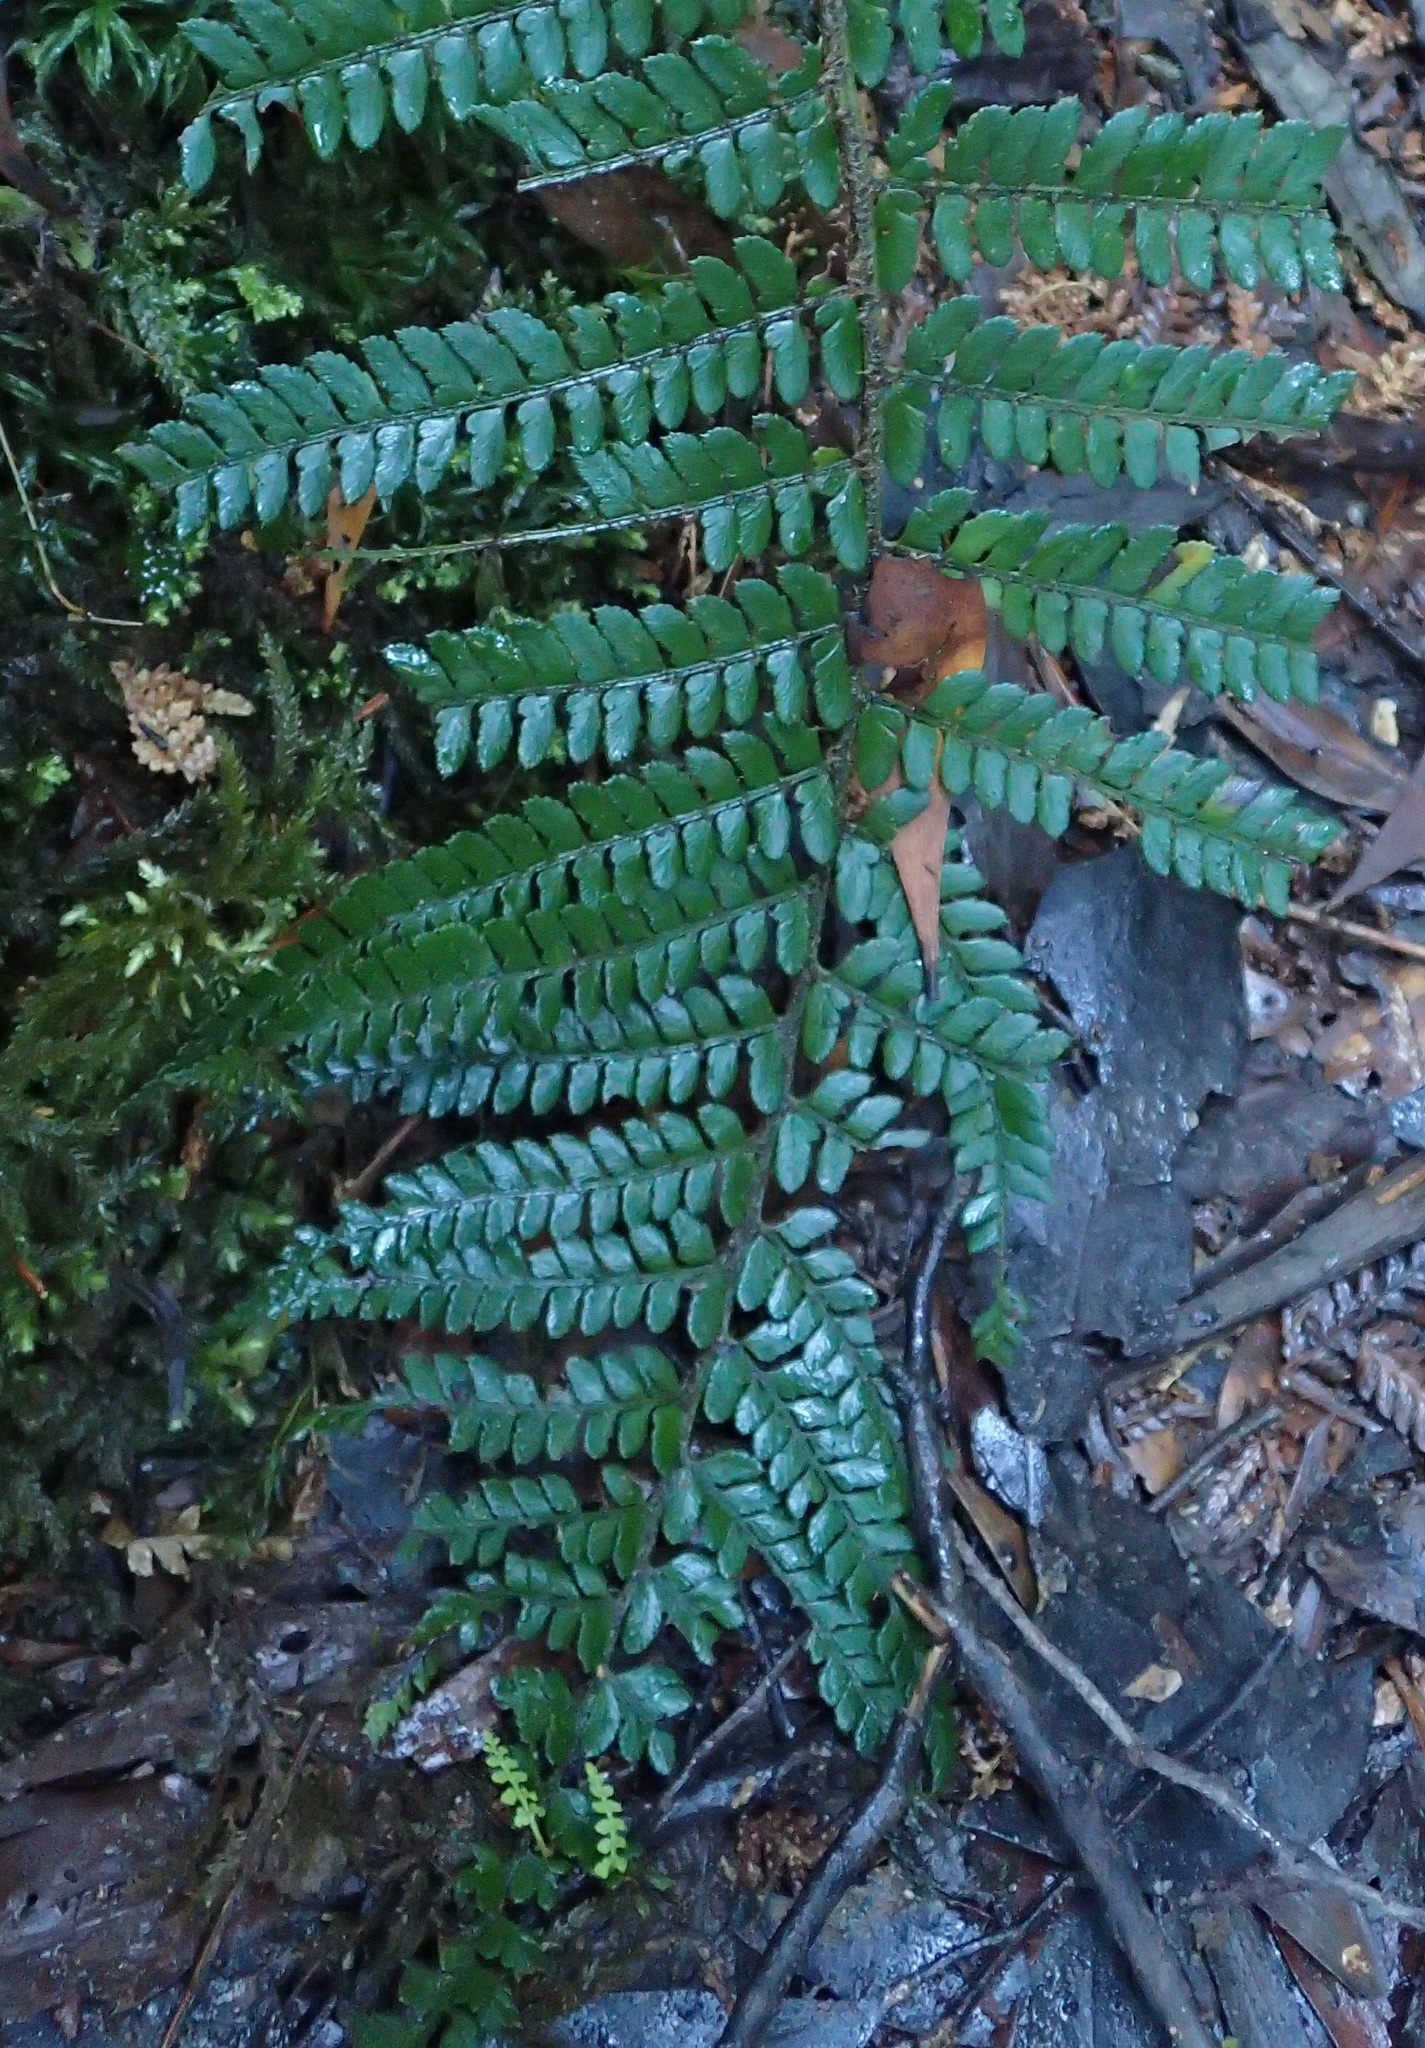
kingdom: Plantae
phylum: Tracheophyta
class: Polypodiopsida
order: Polypodiales
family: Dryopteridaceae
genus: Polystichum
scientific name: Polystichum proliferum
